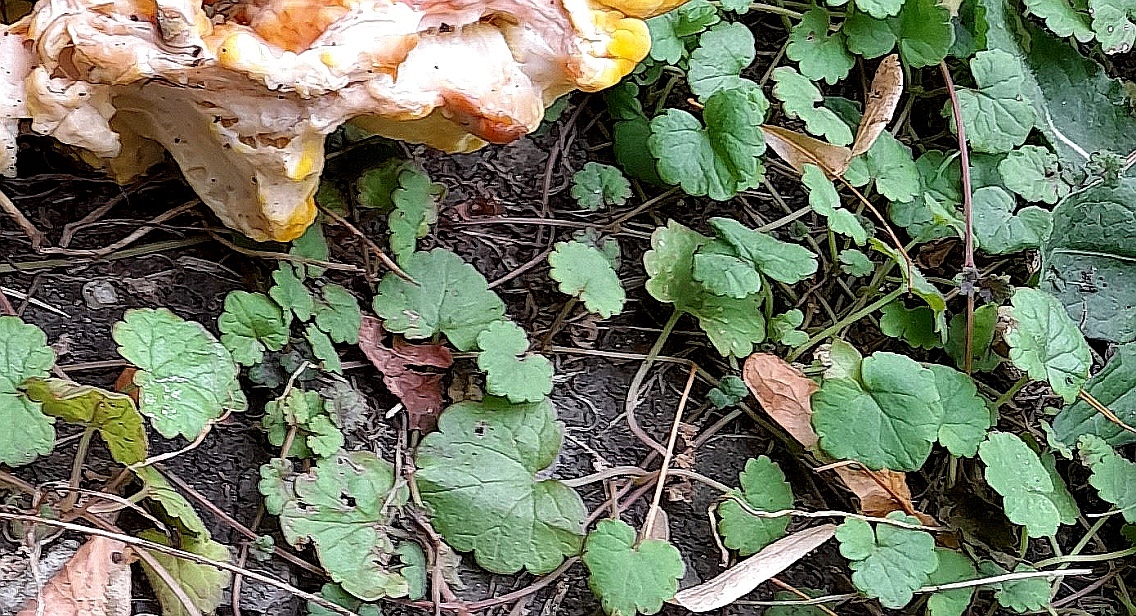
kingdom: Plantae
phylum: Tracheophyta
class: Magnoliopsida
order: Lamiales
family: Lamiaceae
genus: Glechoma
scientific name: Glechoma hederacea
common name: Ground ivy
